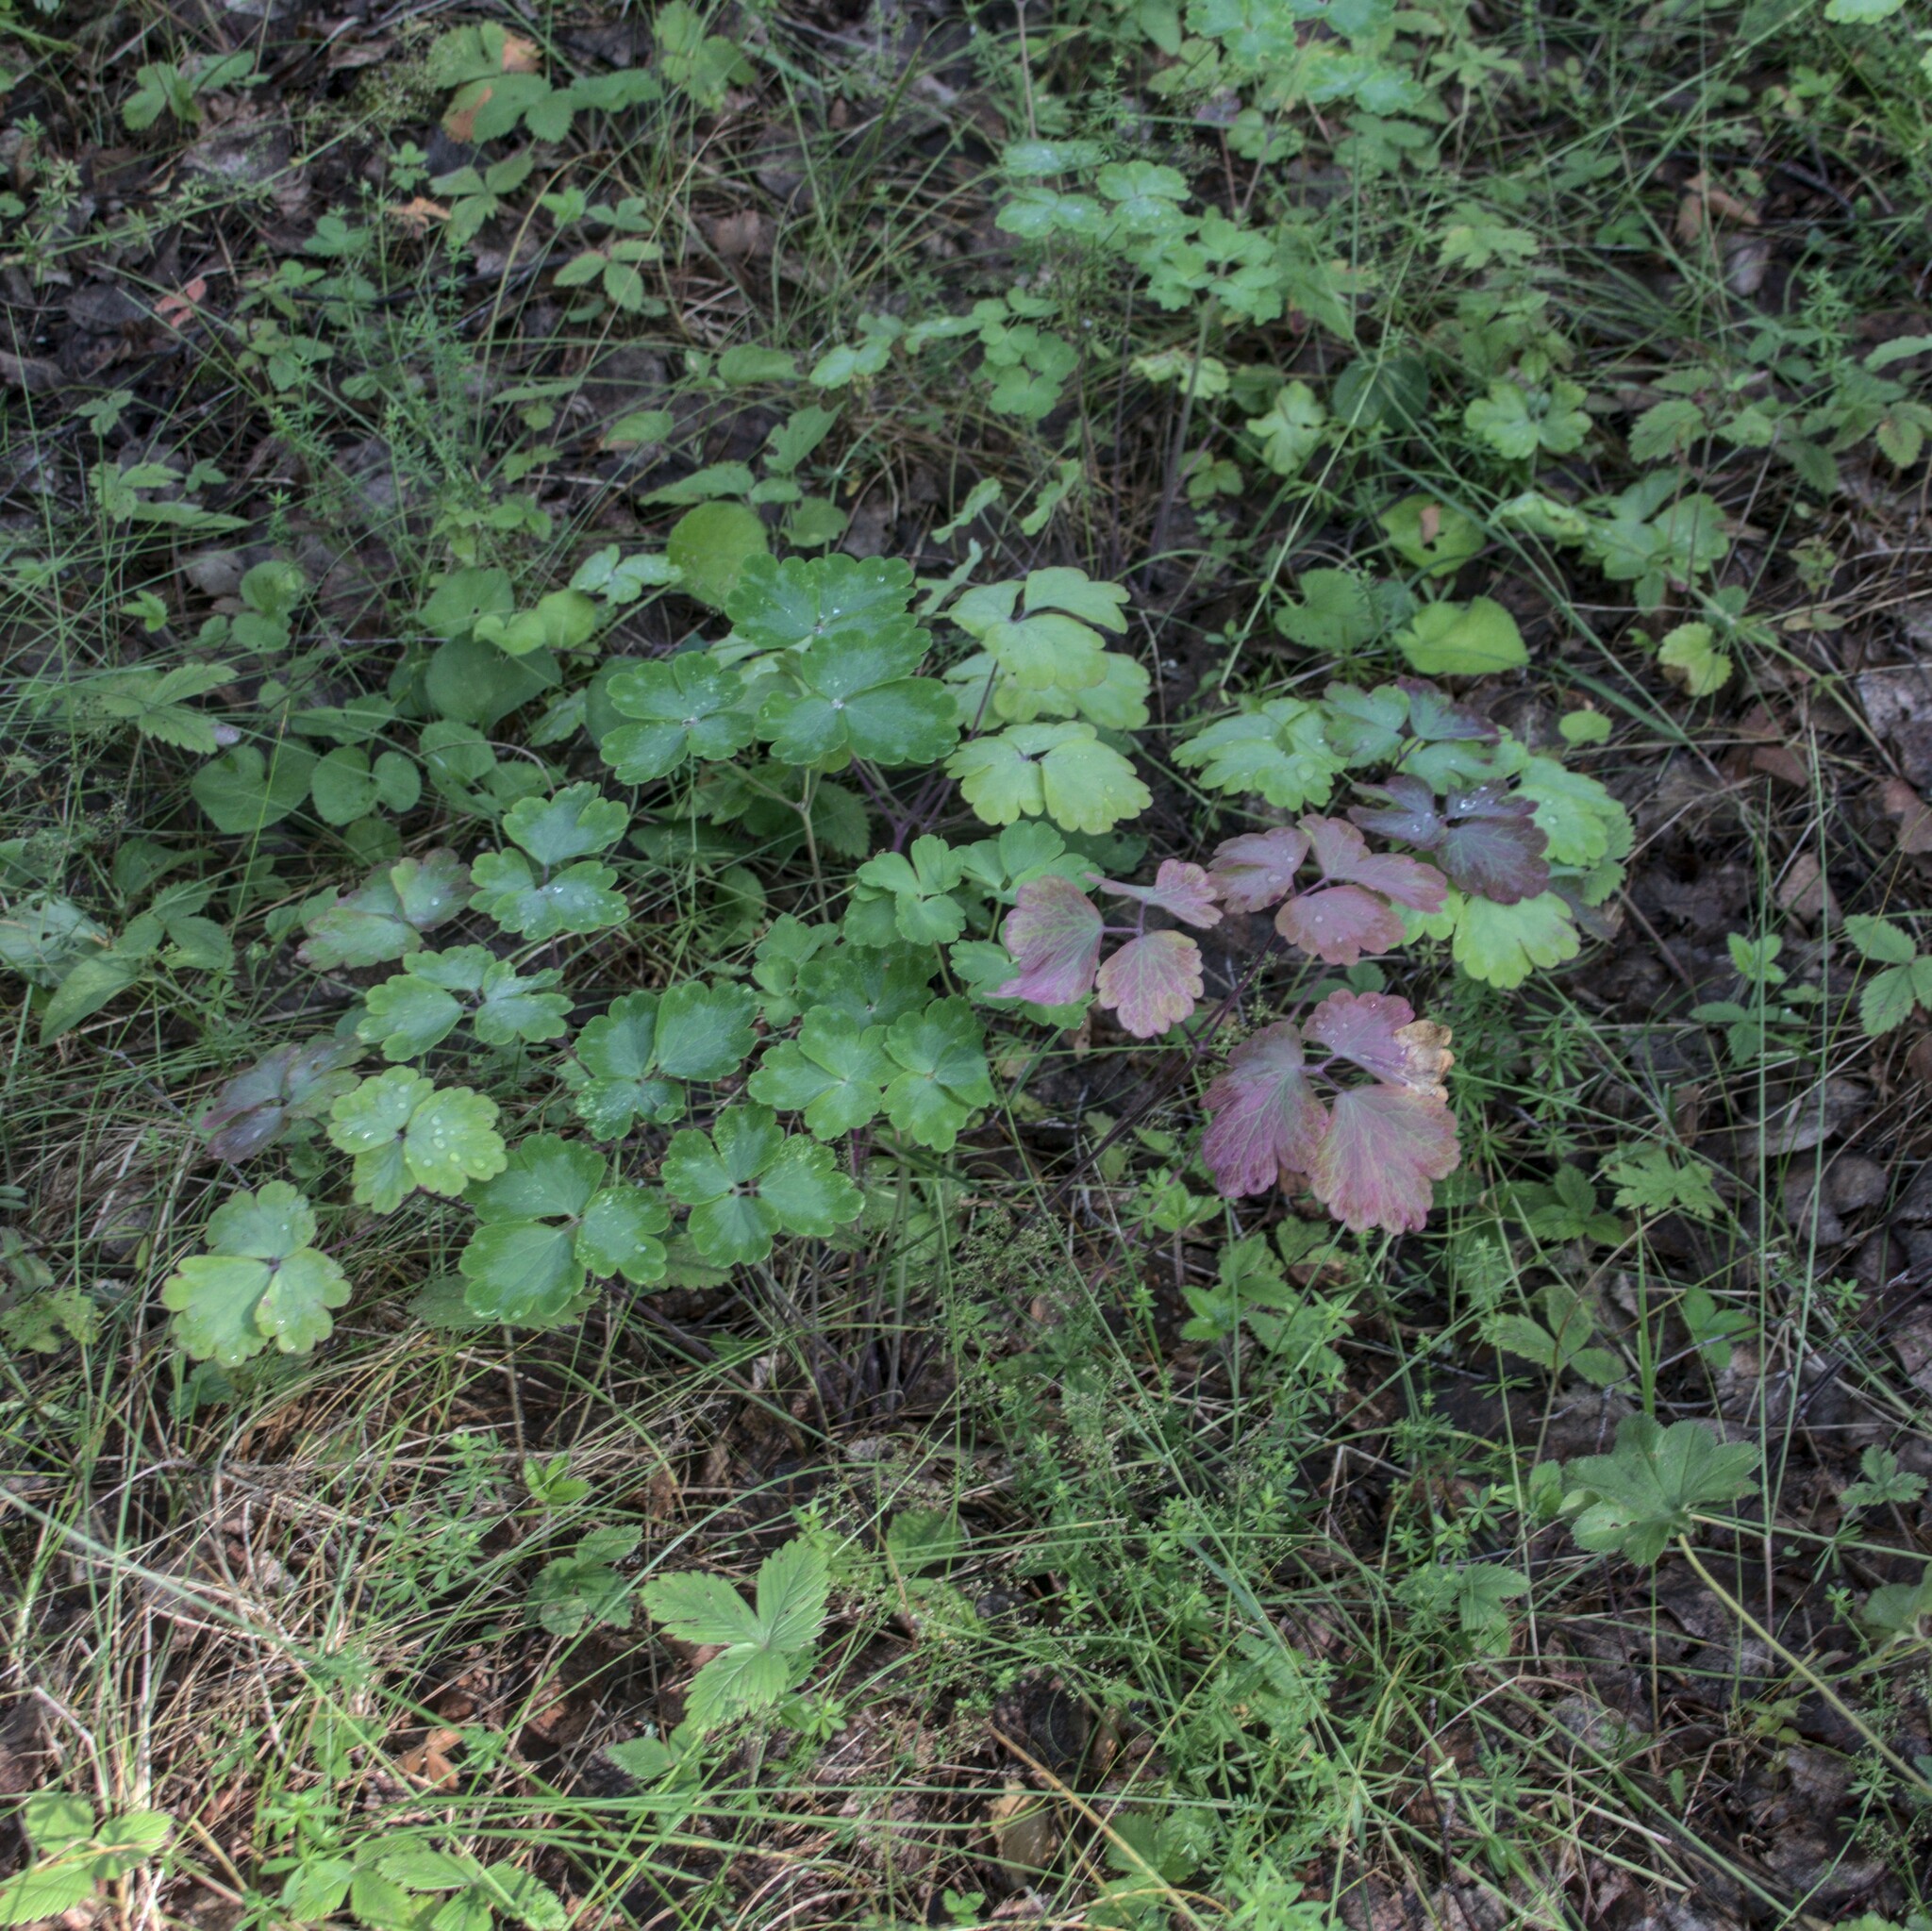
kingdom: Plantae
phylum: Tracheophyta
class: Magnoliopsida
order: Ranunculales
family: Ranunculaceae
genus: Aquilegia
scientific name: Aquilegia vulgaris
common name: Columbine
